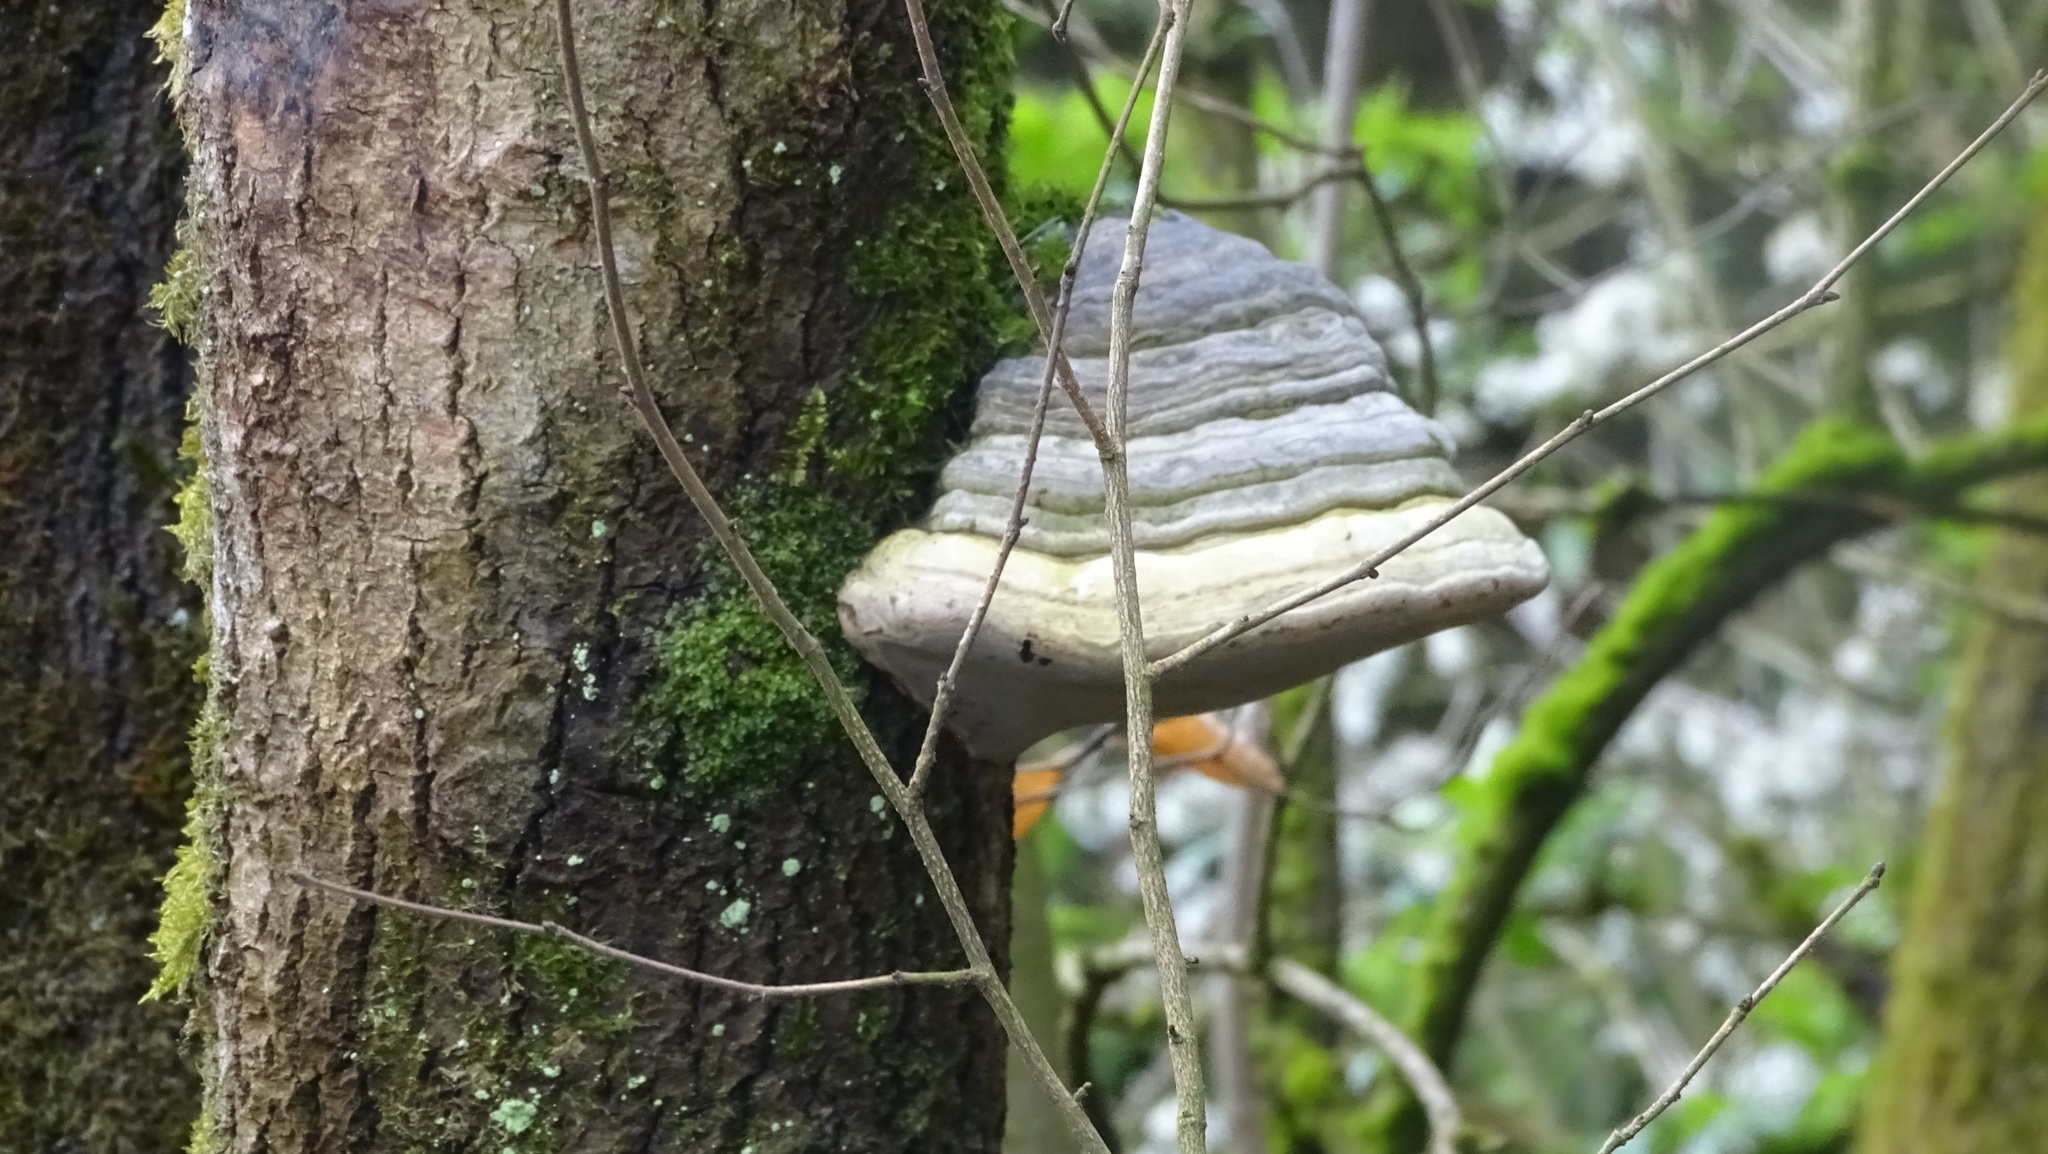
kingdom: Fungi
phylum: Basidiomycota
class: Agaricomycetes
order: Polyporales
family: Polyporaceae
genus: Fomes
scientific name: Fomes fomentarius
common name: Hoof fungus
